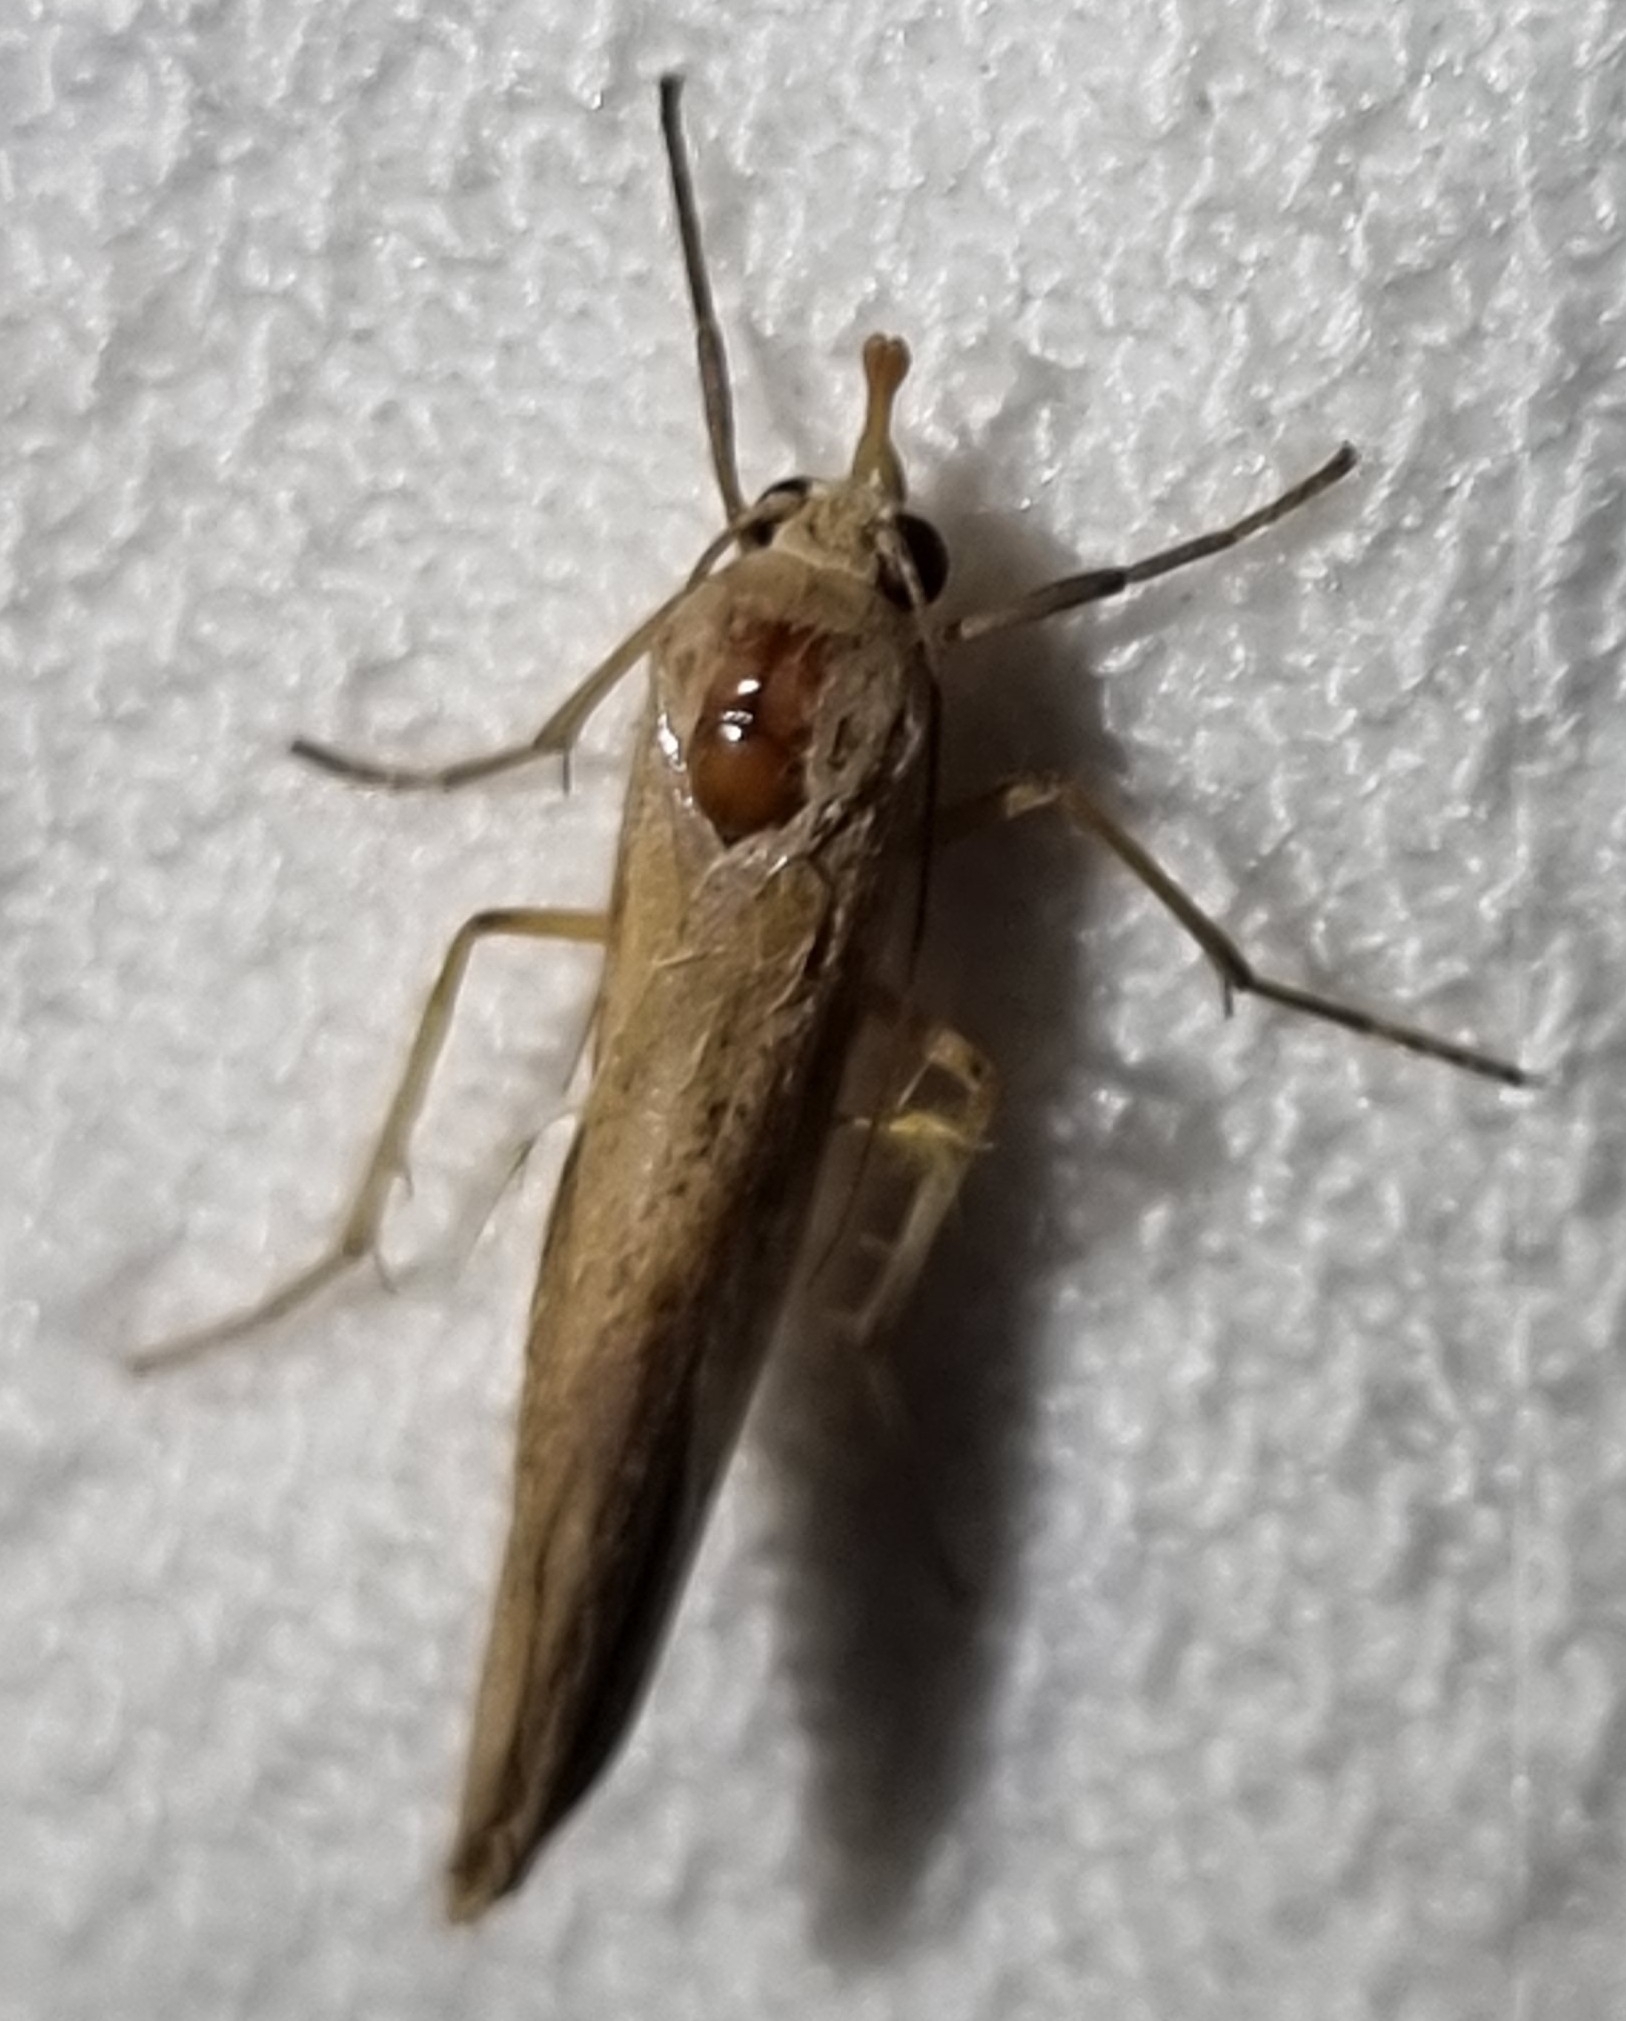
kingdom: Animalia
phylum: Arthropoda
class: Insecta
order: Lepidoptera
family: Erebidae
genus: Calamidia
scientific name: Calamidia hirta
